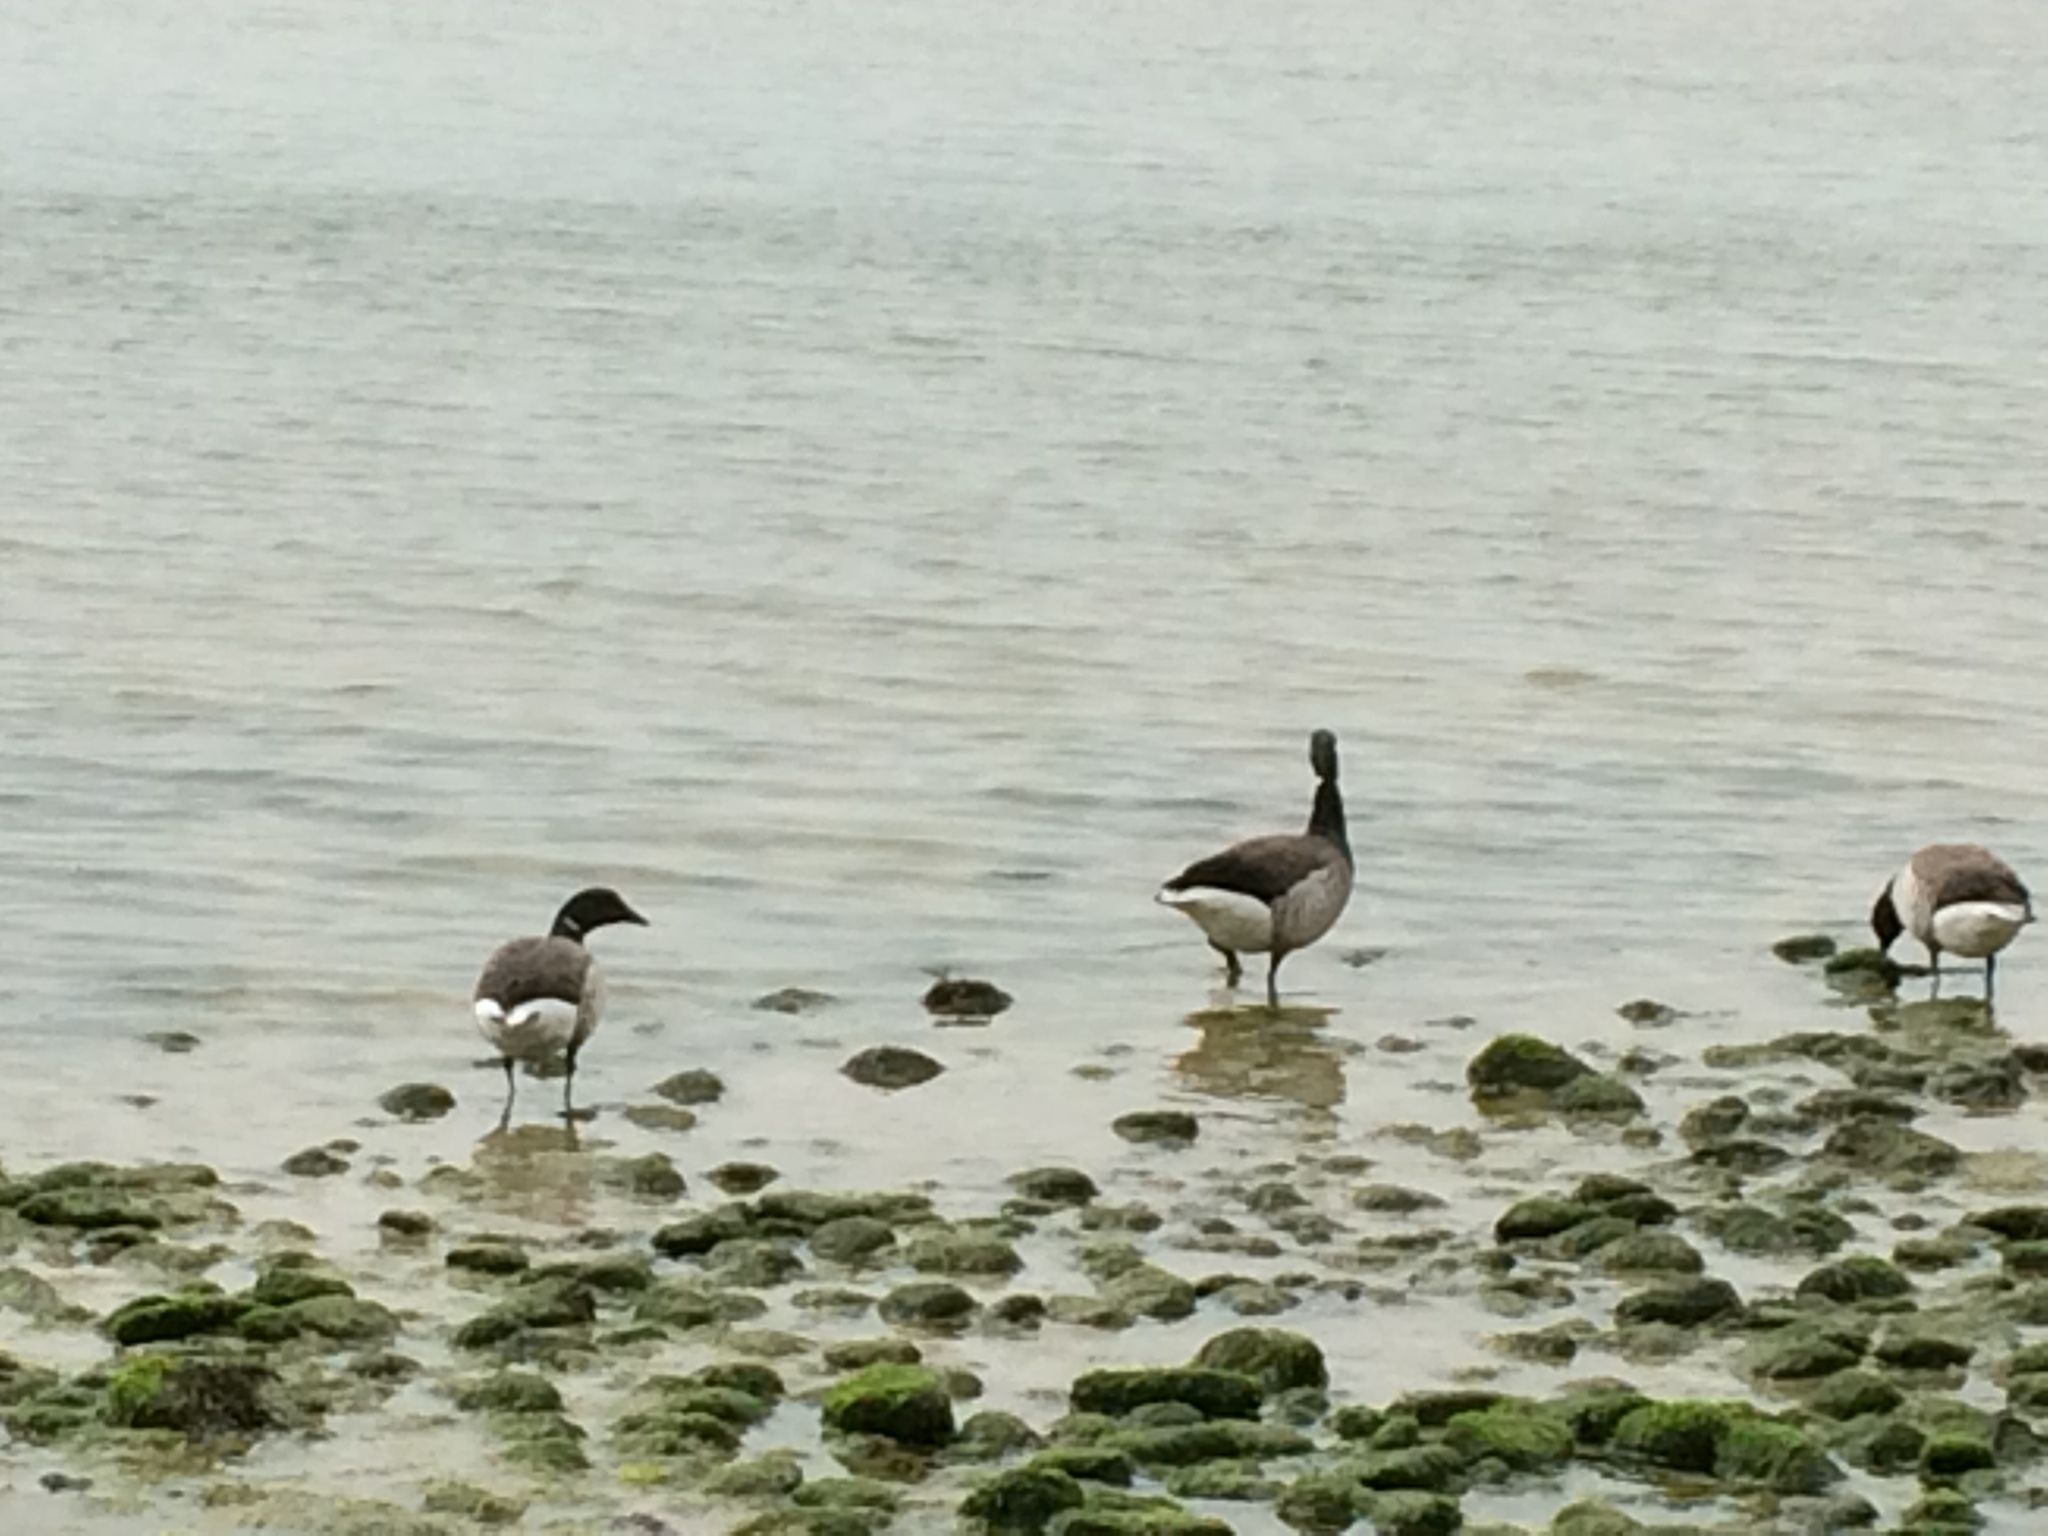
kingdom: Animalia
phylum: Chordata
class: Aves
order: Anseriformes
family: Anatidae
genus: Branta
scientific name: Branta bernicla
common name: Brant goose
